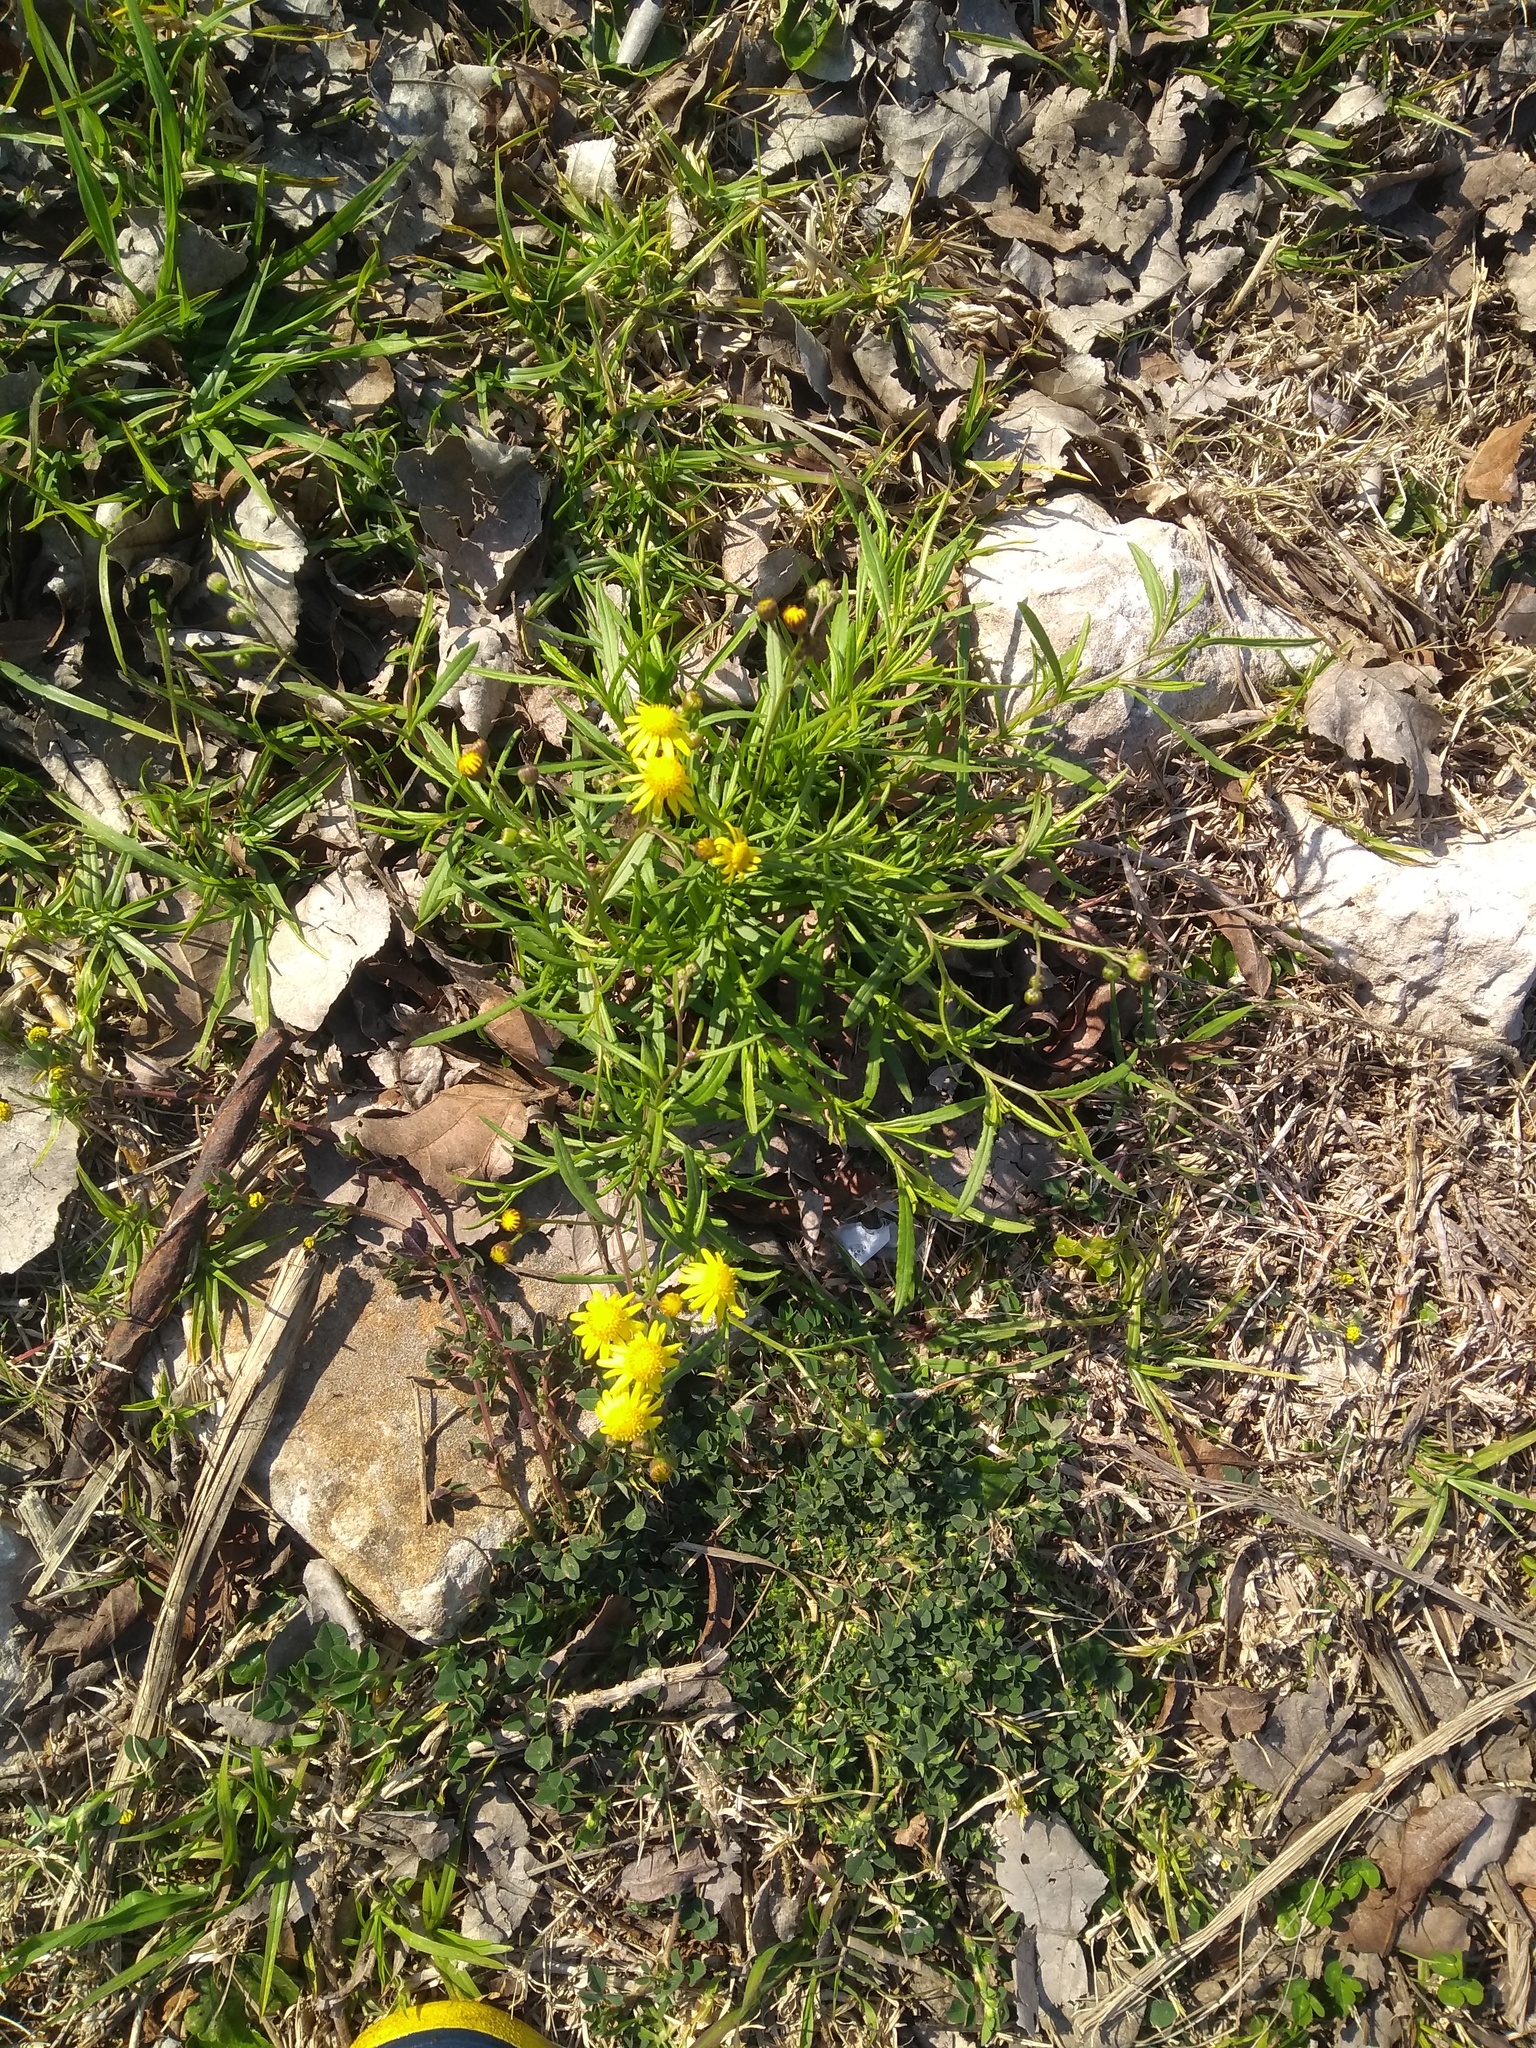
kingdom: Plantae
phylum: Tracheophyta
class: Magnoliopsida
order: Asterales
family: Asteraceae
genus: Senecio
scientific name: Senecio madagascariensis
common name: Madagascar ragwort
